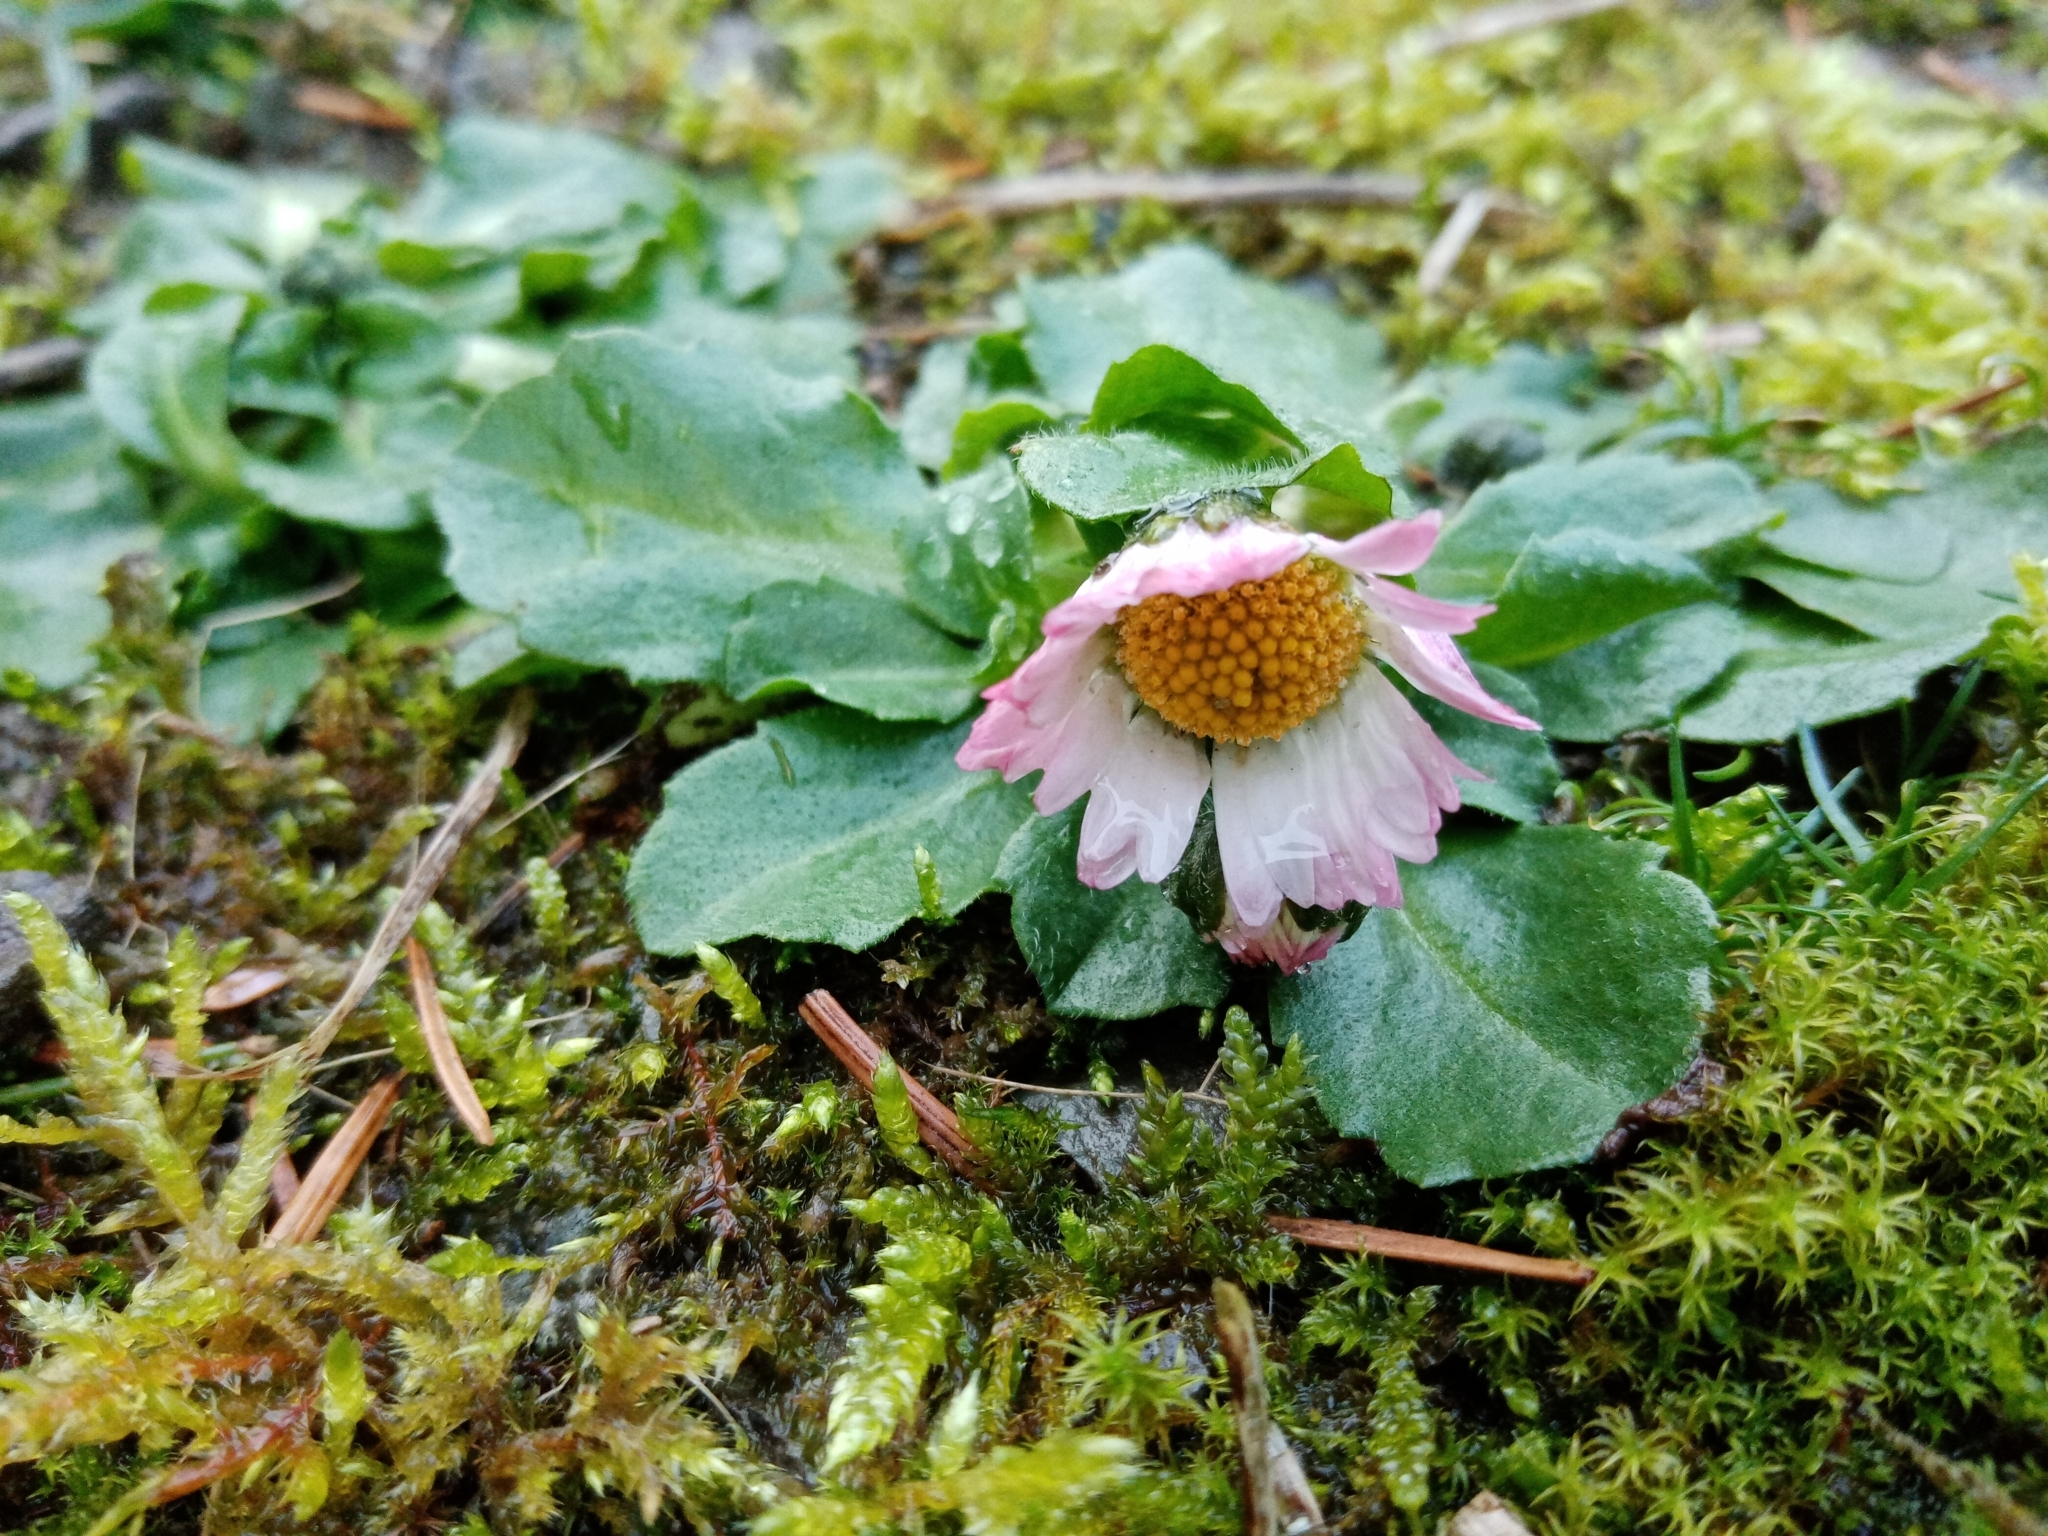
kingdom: Plantae
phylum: Tracheophyta
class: Magnoliopsida
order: Asterales
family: Asteraceae
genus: Bellis
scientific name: Bellis perennis
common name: Lawndaisy
